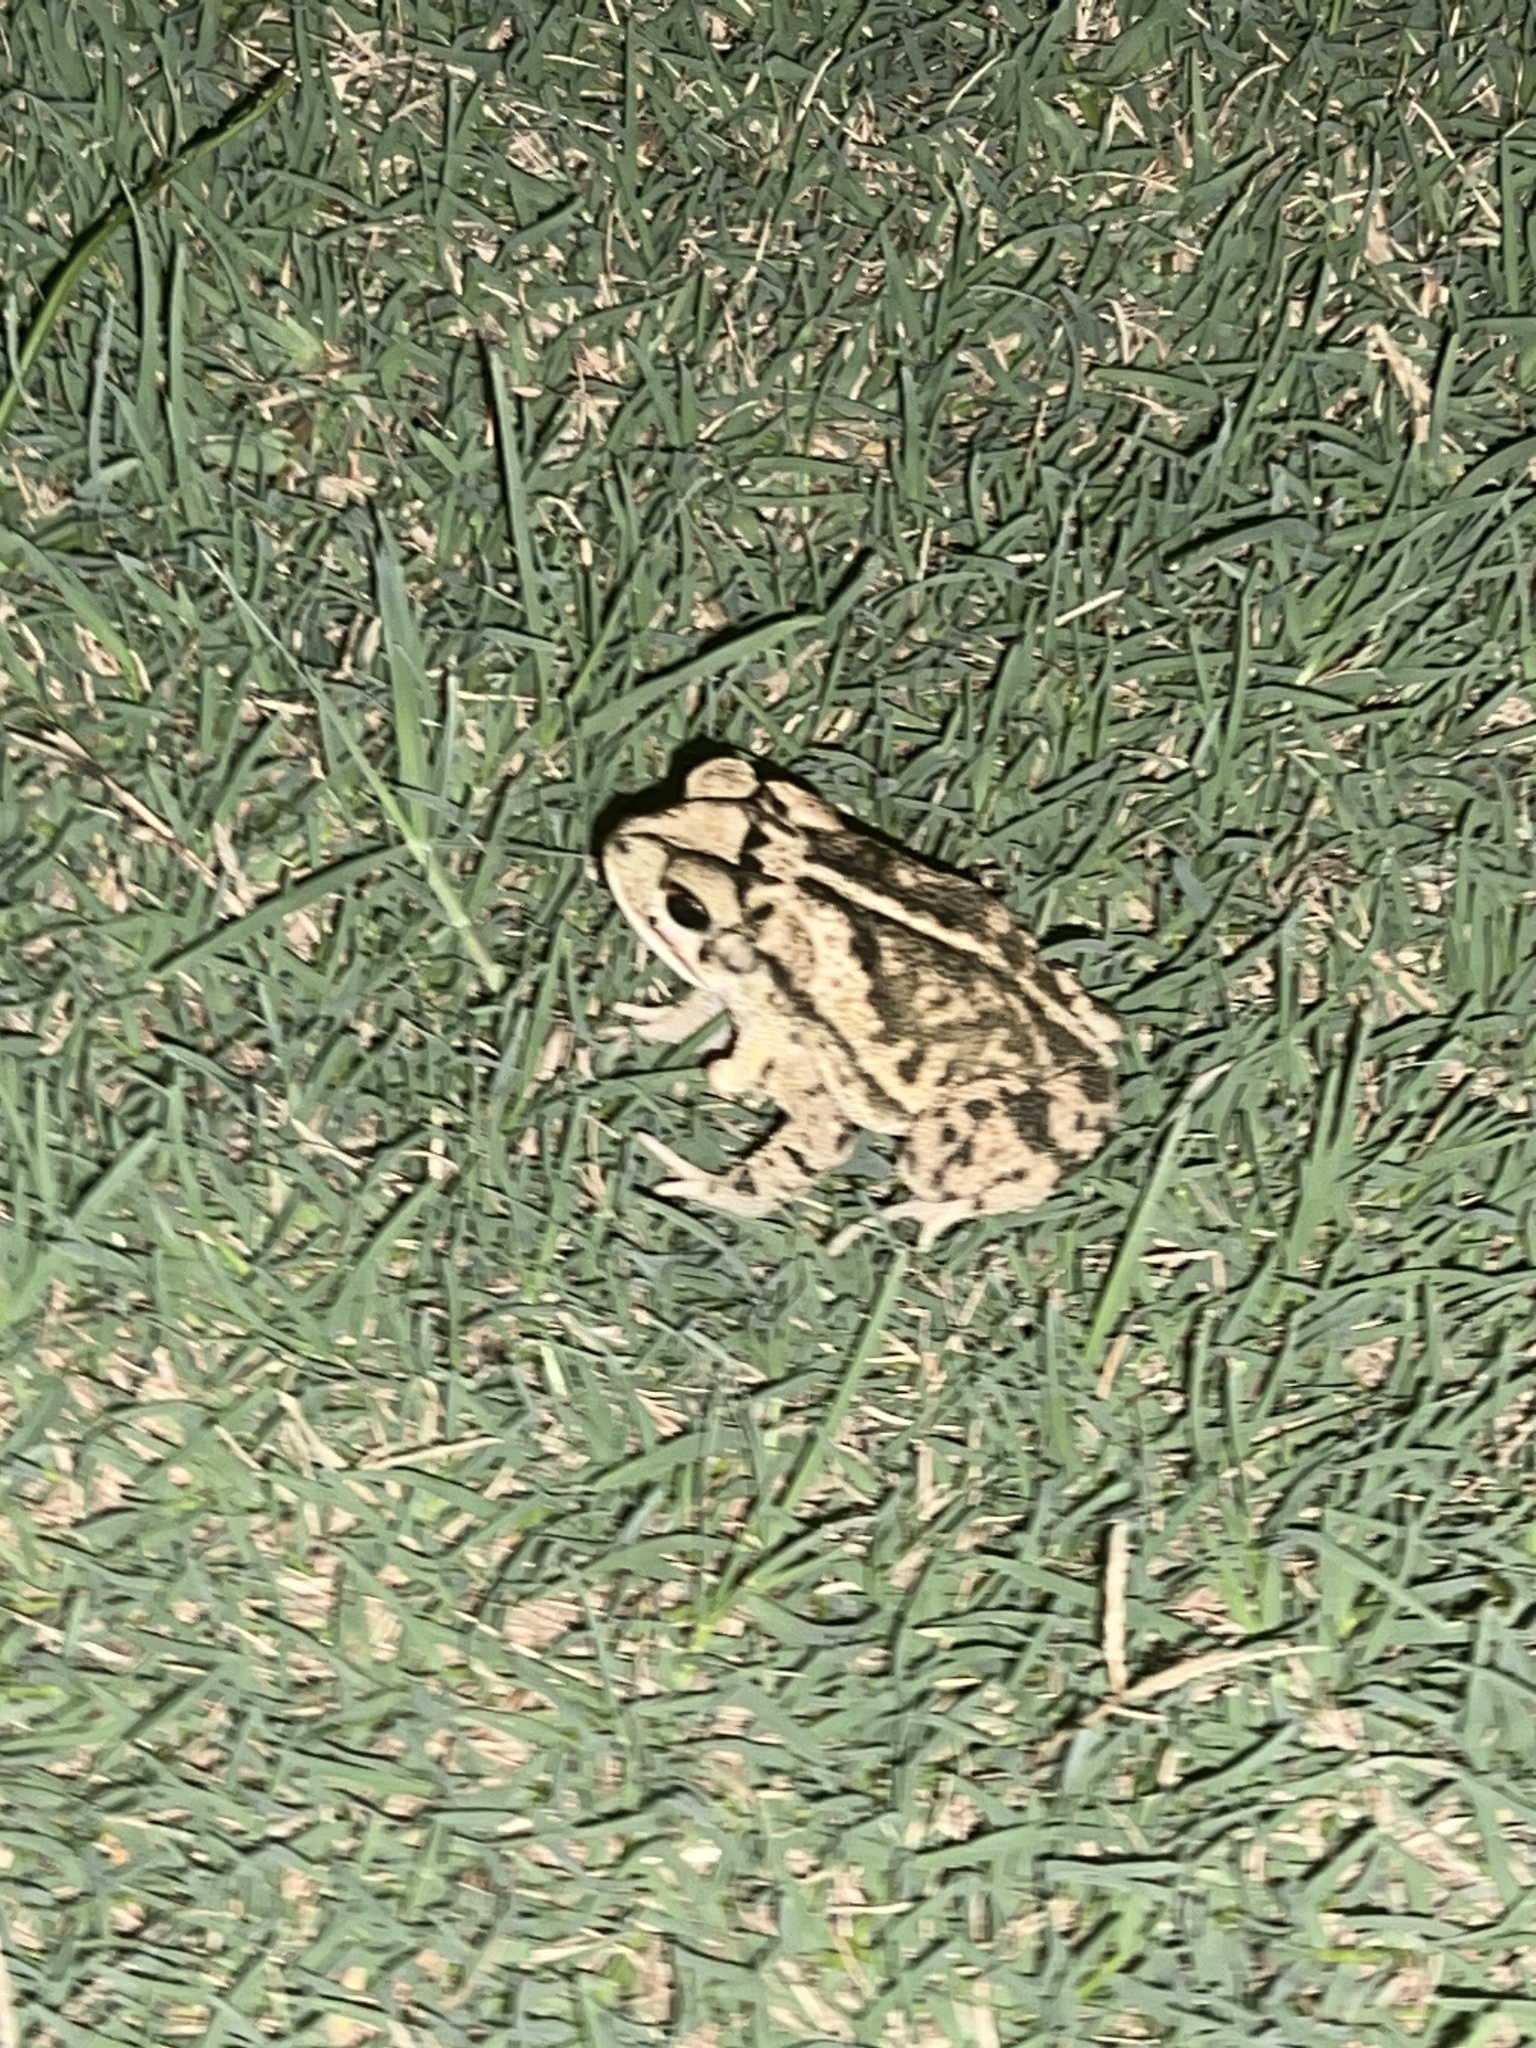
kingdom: Animalia
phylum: Chordata
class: Amphibia
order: Anura
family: Bufonidae
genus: Incilius
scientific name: Incilius nebulifer
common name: Gulf coast toad
